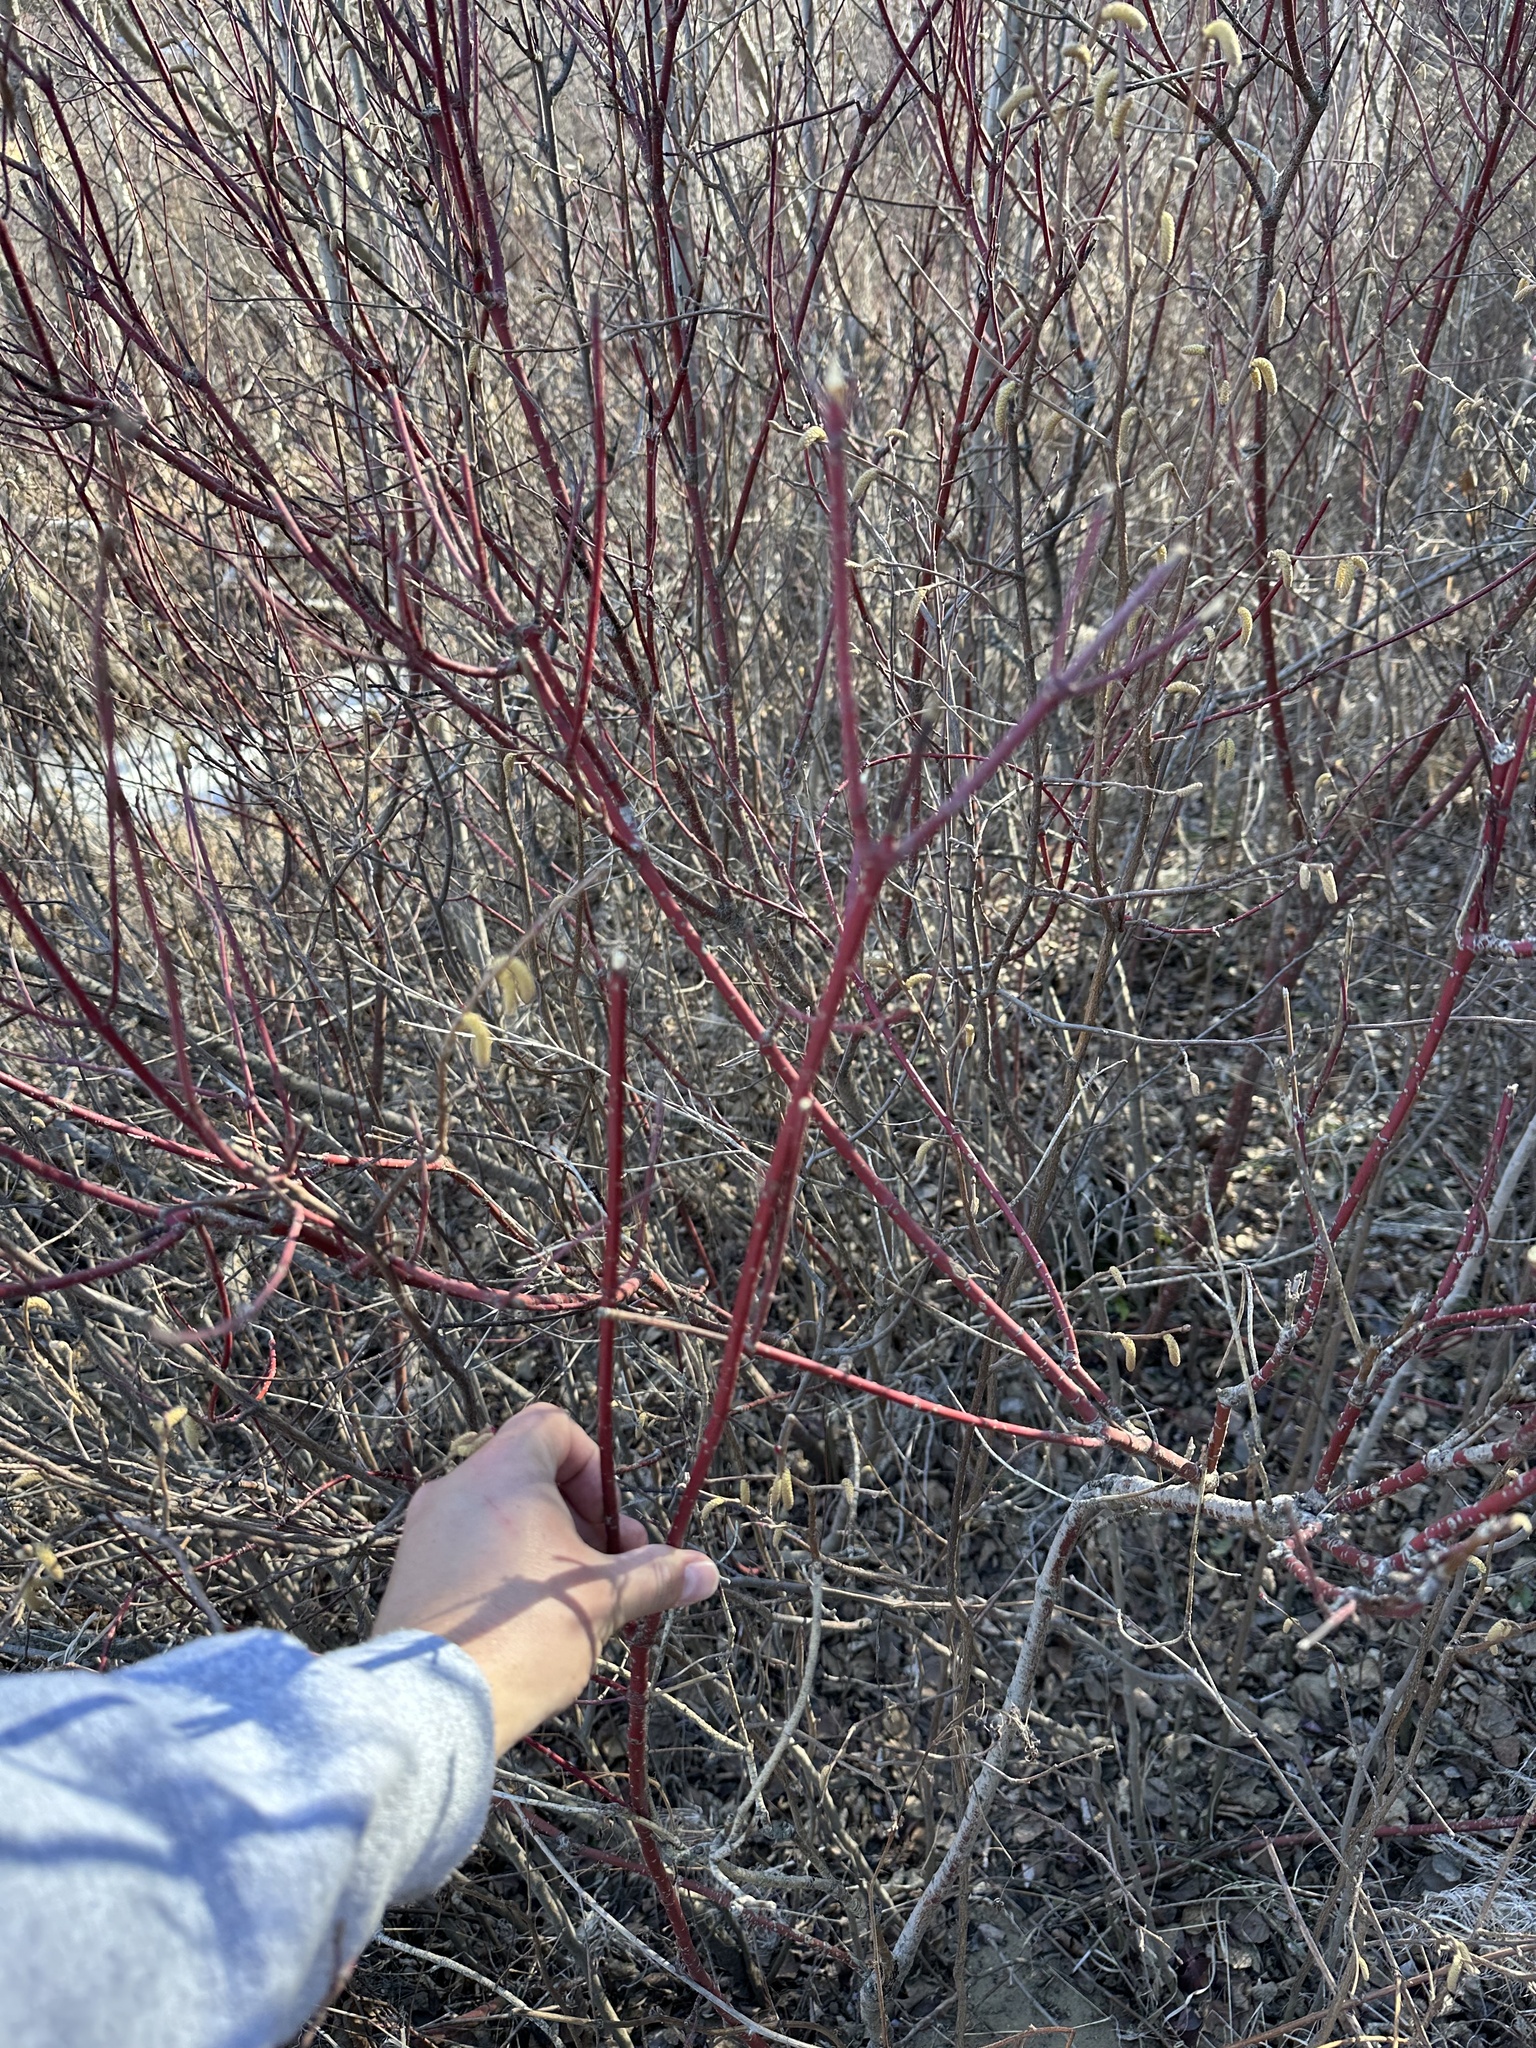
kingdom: Plantae
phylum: Tracheophyta
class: Magnoliopsida
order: Cornales
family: Cornaceae
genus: Cornus
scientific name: Cornus sericea
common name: Red-osier dogwood
